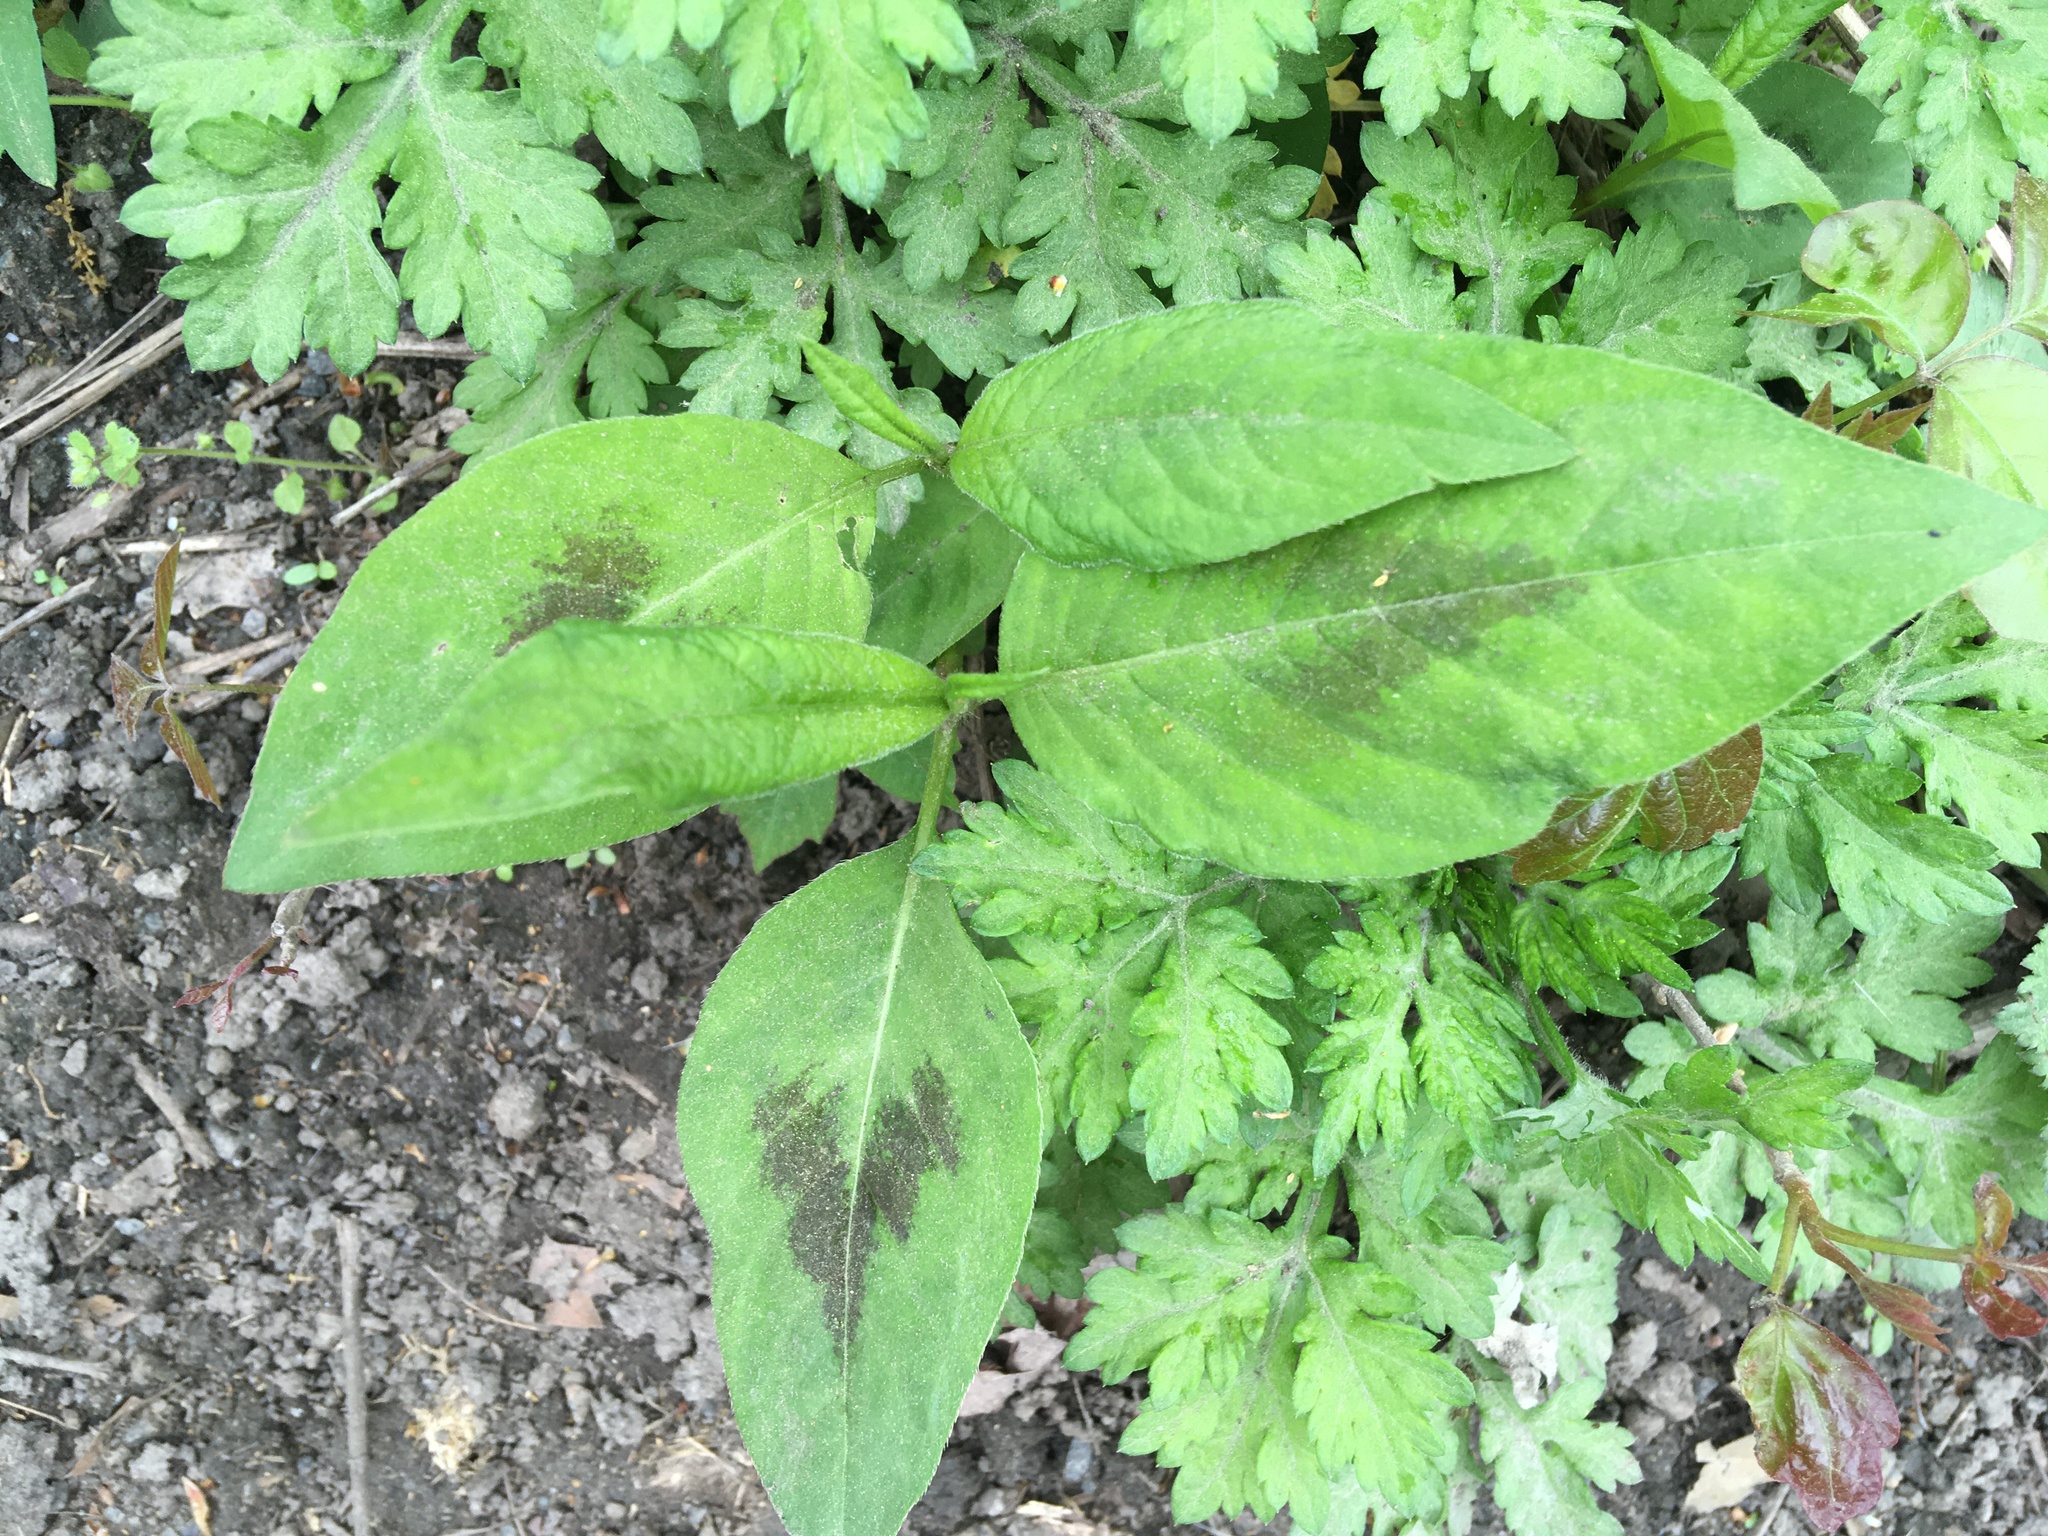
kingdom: Plantae
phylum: Tracheophyta
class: Magnoliopsida
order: Caryophyllales
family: Polygonaceae
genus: Persicaria
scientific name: Persicaria virginiana
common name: Jumpseed
